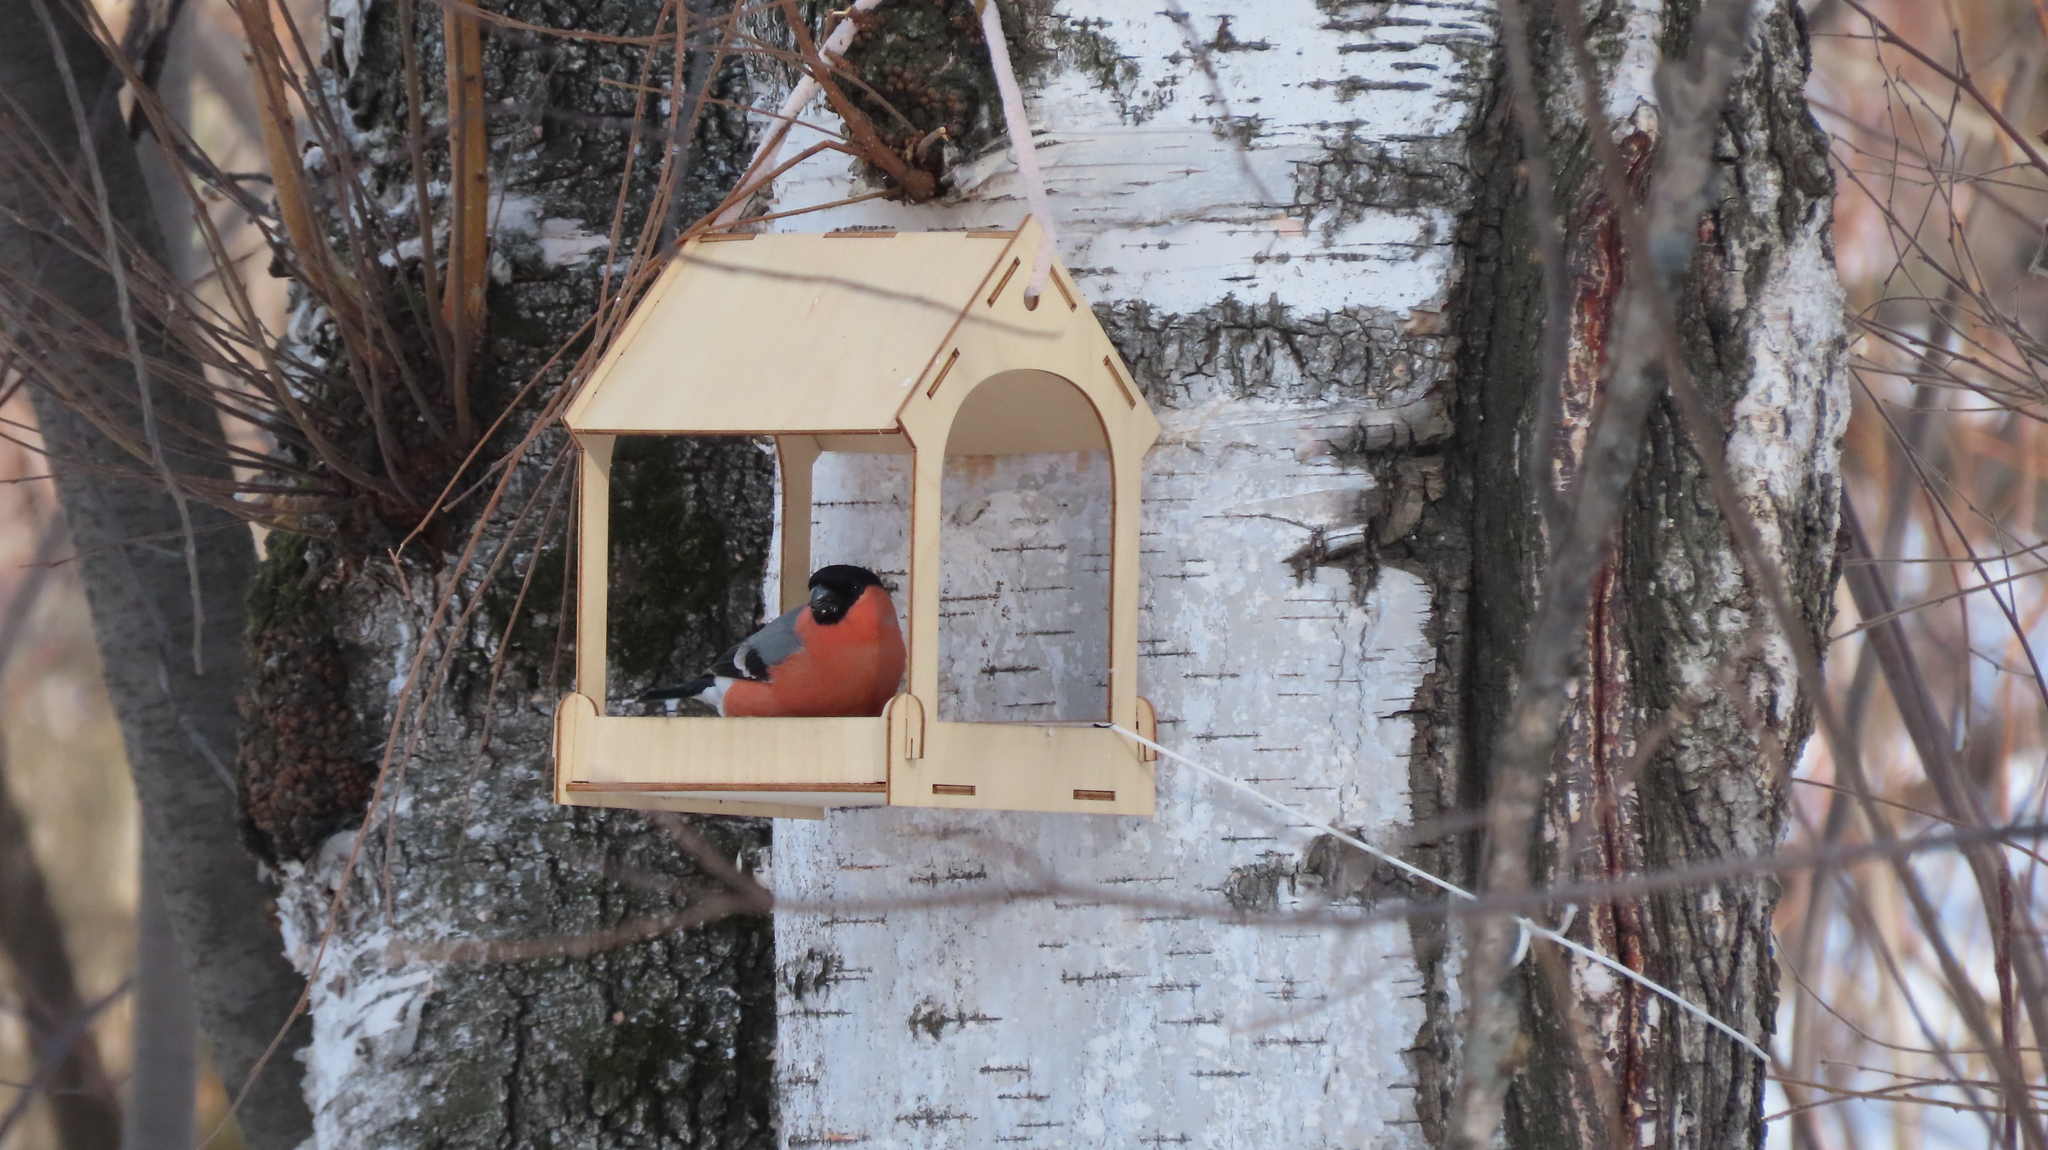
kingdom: Animalia
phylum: Chordata
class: Aves
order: Passeriformes
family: Fringillidae
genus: Pyrrhula
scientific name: Pyrrhula pyrrhula
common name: Eurasian bullfinch
